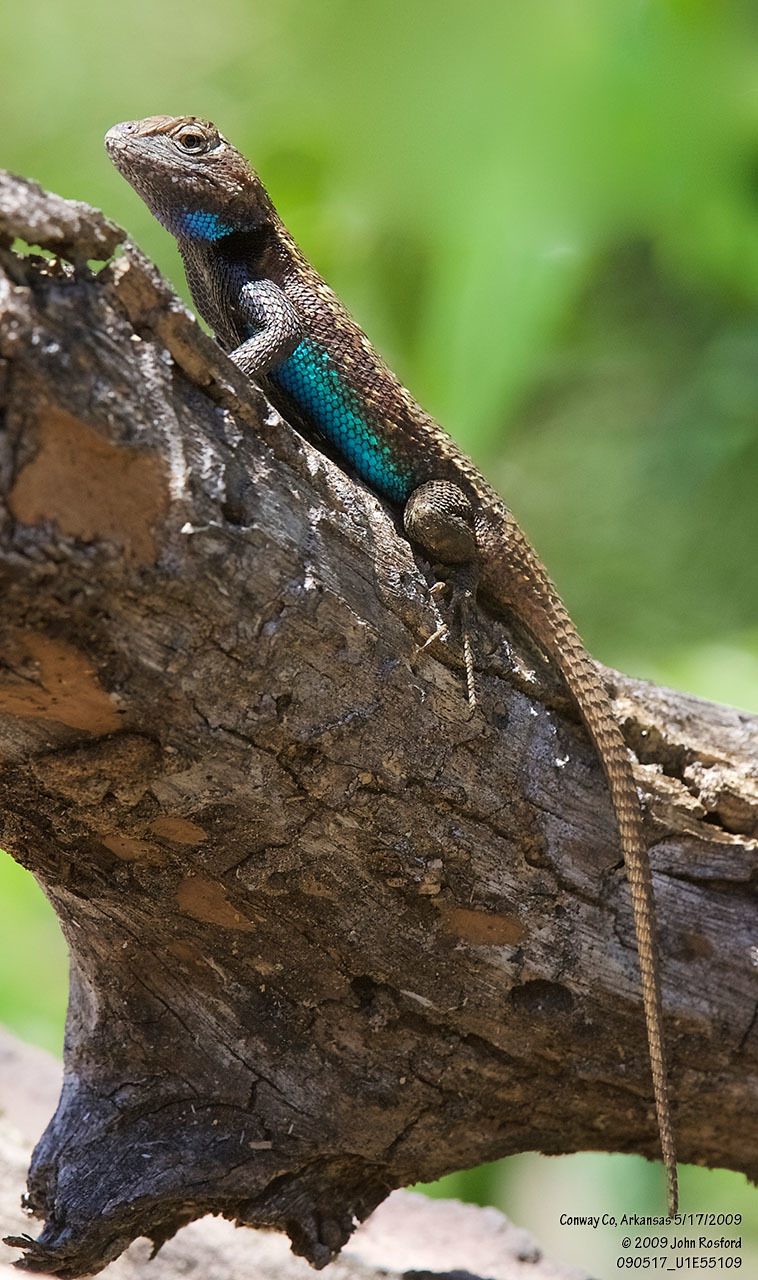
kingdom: Animalia
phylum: Chordata
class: Squamata
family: Phrynosomatidae
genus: Sceloporus
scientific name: Sceloporus consobrinus
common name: Southern prairie lizard
